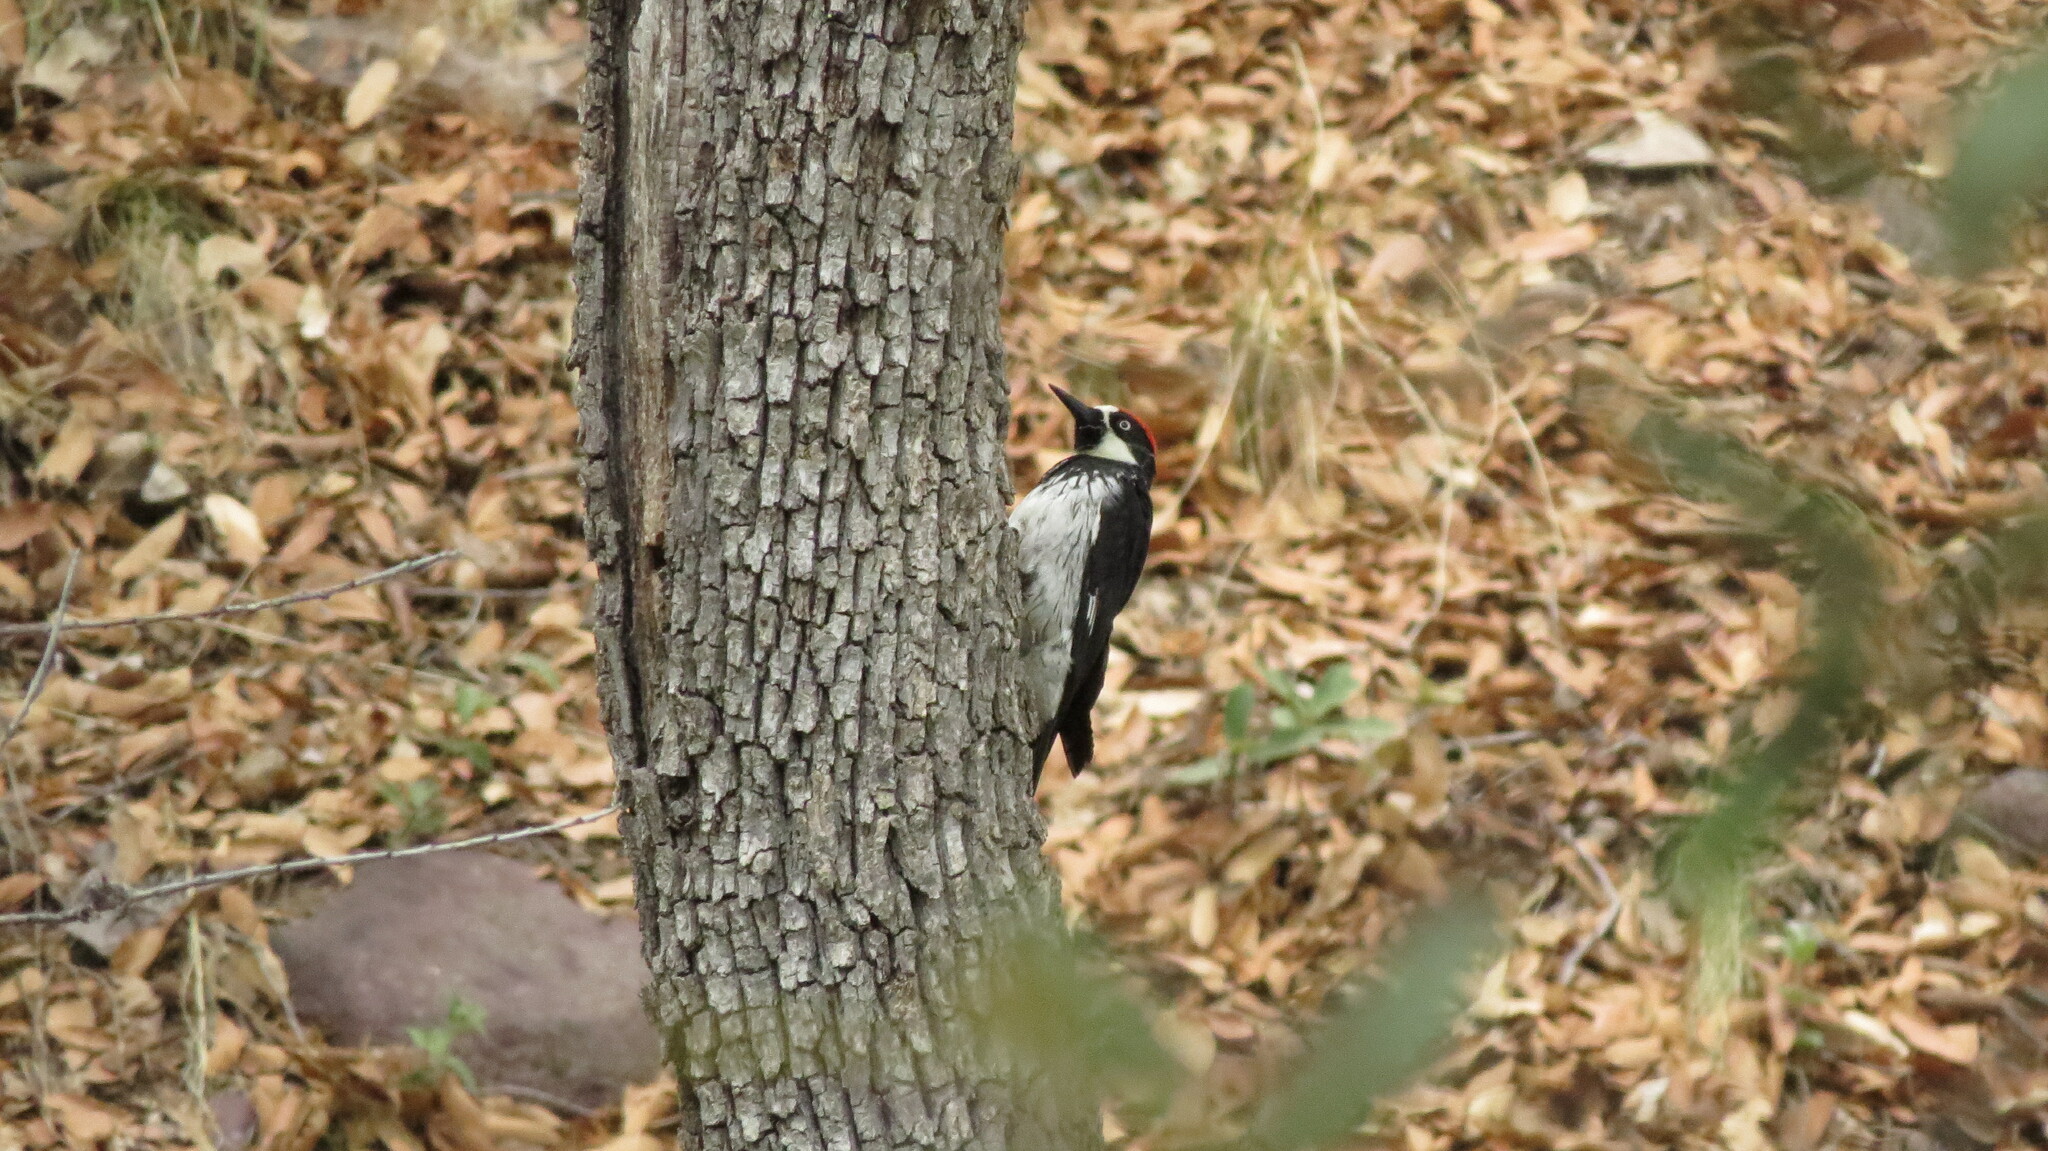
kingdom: Animalia
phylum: Chordata
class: Aves
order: Piciformes
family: Picidae
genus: Melanerpes
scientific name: Melanerpes formicivorus
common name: Acorn woodpecker
